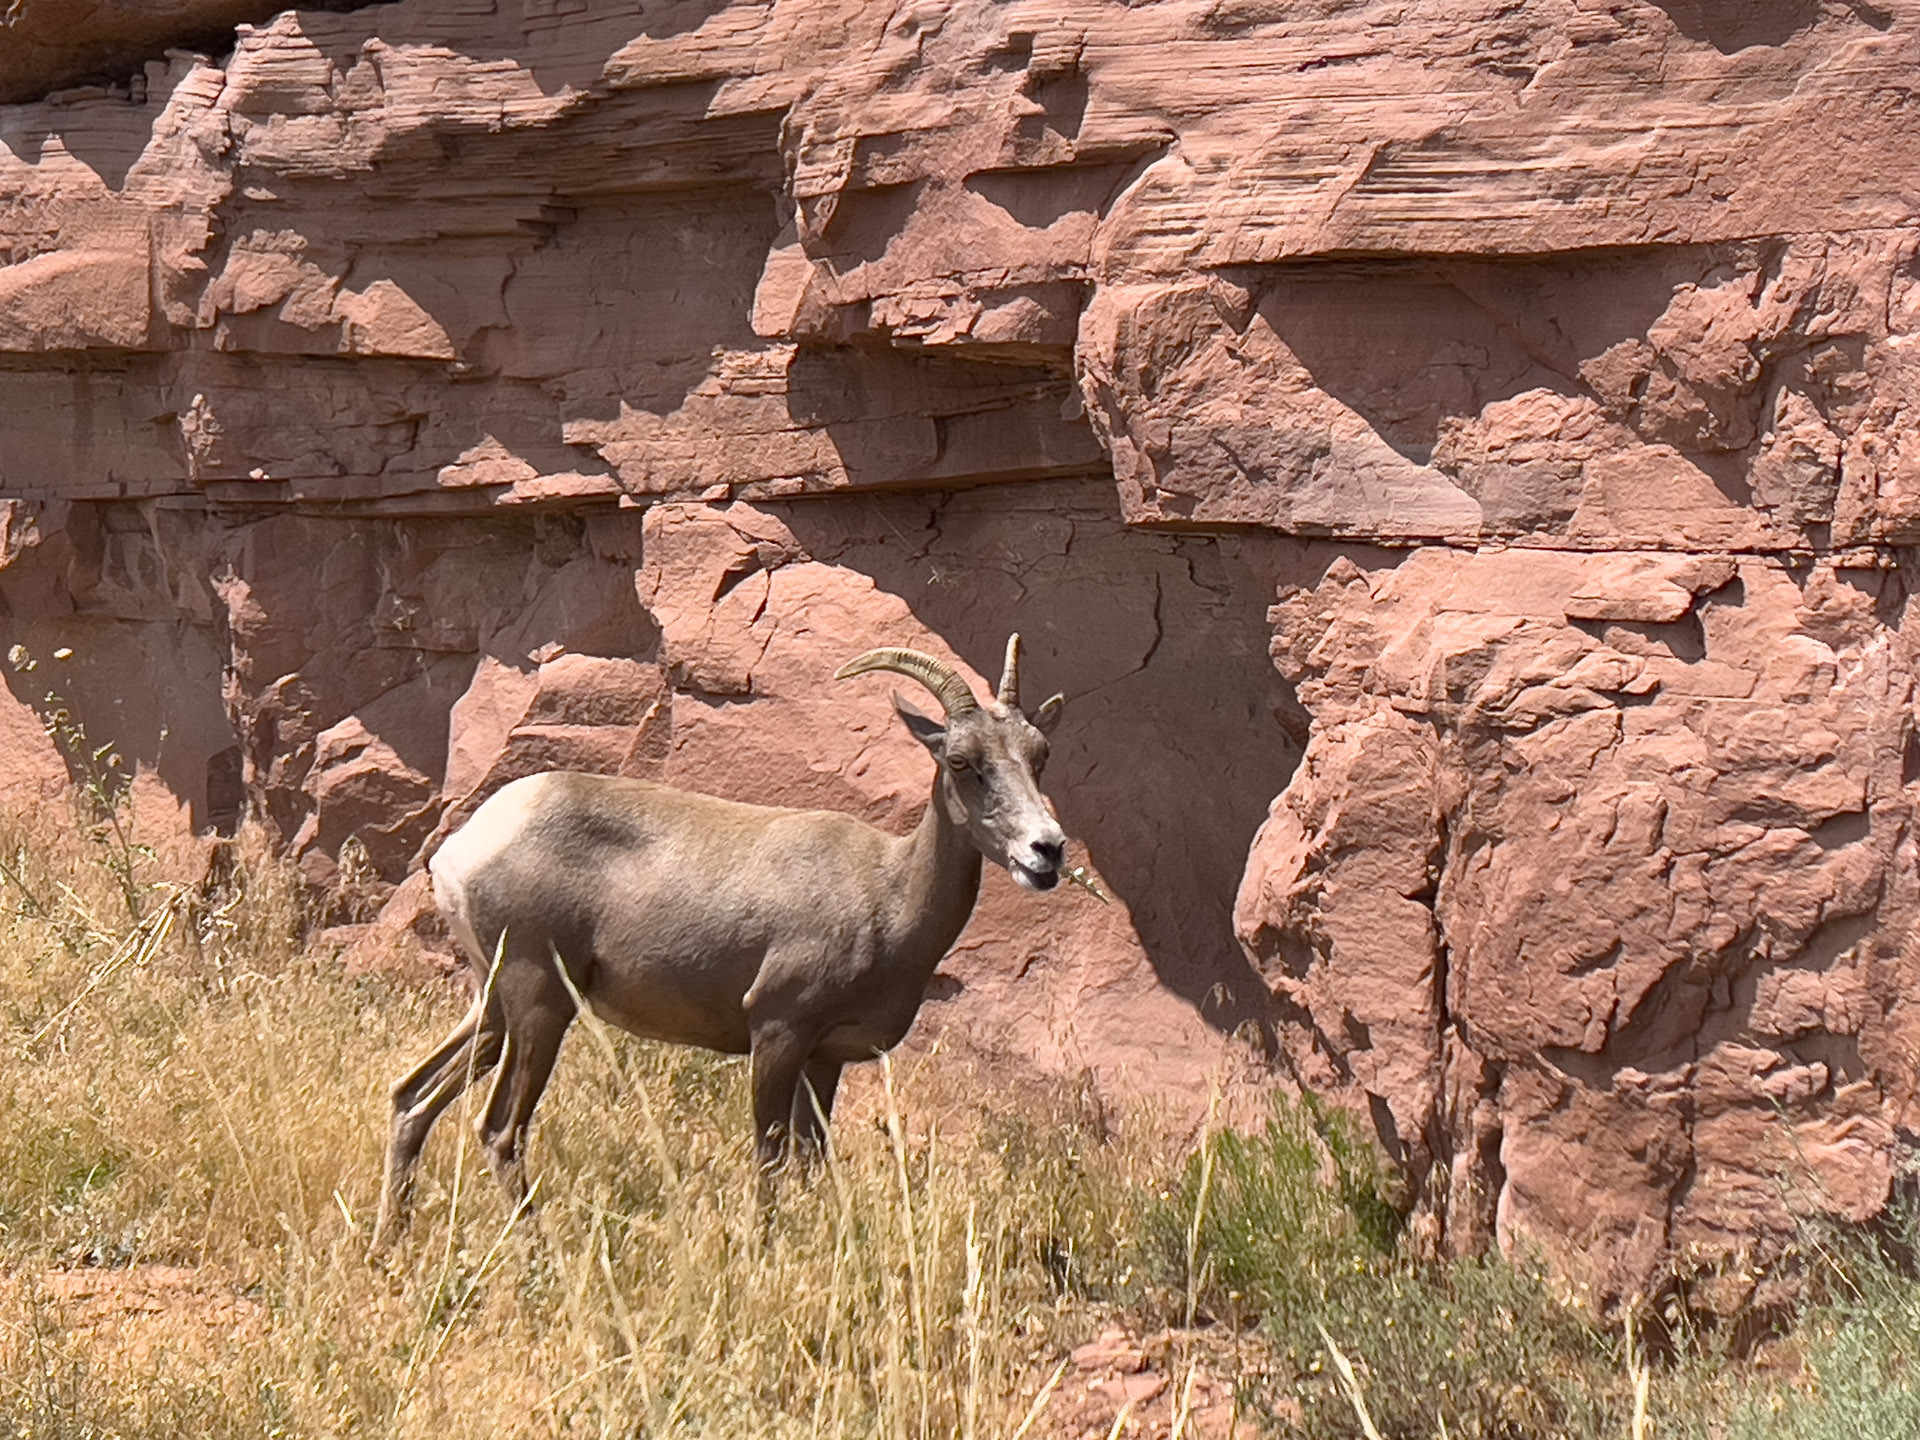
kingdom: Animalia
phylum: Chordata
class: Mammalia
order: Artiodactyla
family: Bovidae
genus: Ovis
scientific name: Ovis canadensis
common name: Bighorn sheep
